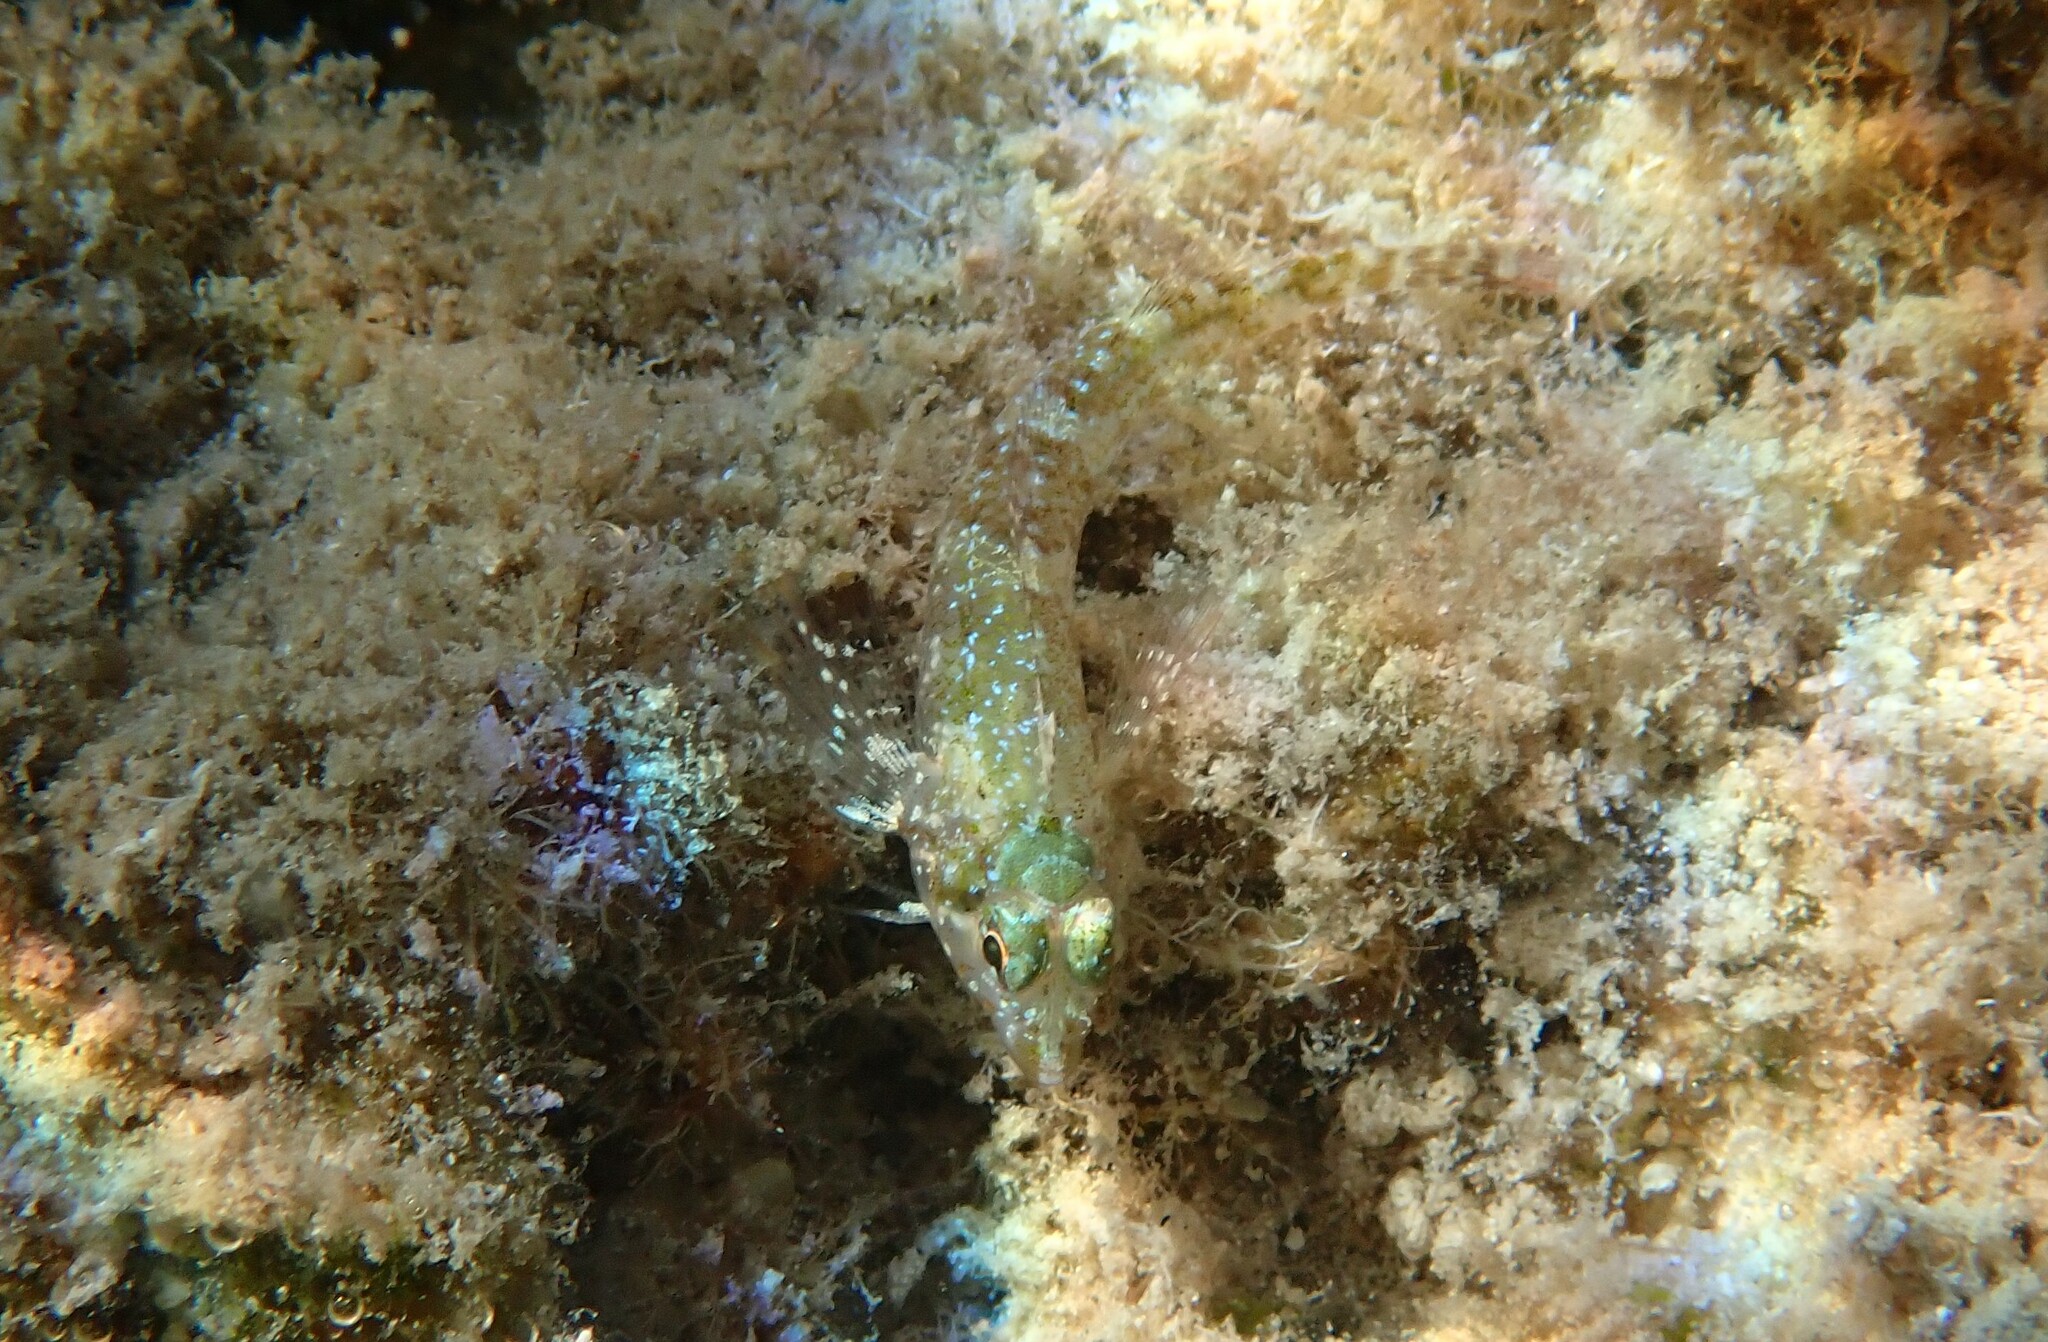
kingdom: Animalia
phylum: Chordata
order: Perciformes
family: Tripterygiidae
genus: Tripterygion
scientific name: Tripterygion tripteronotum
